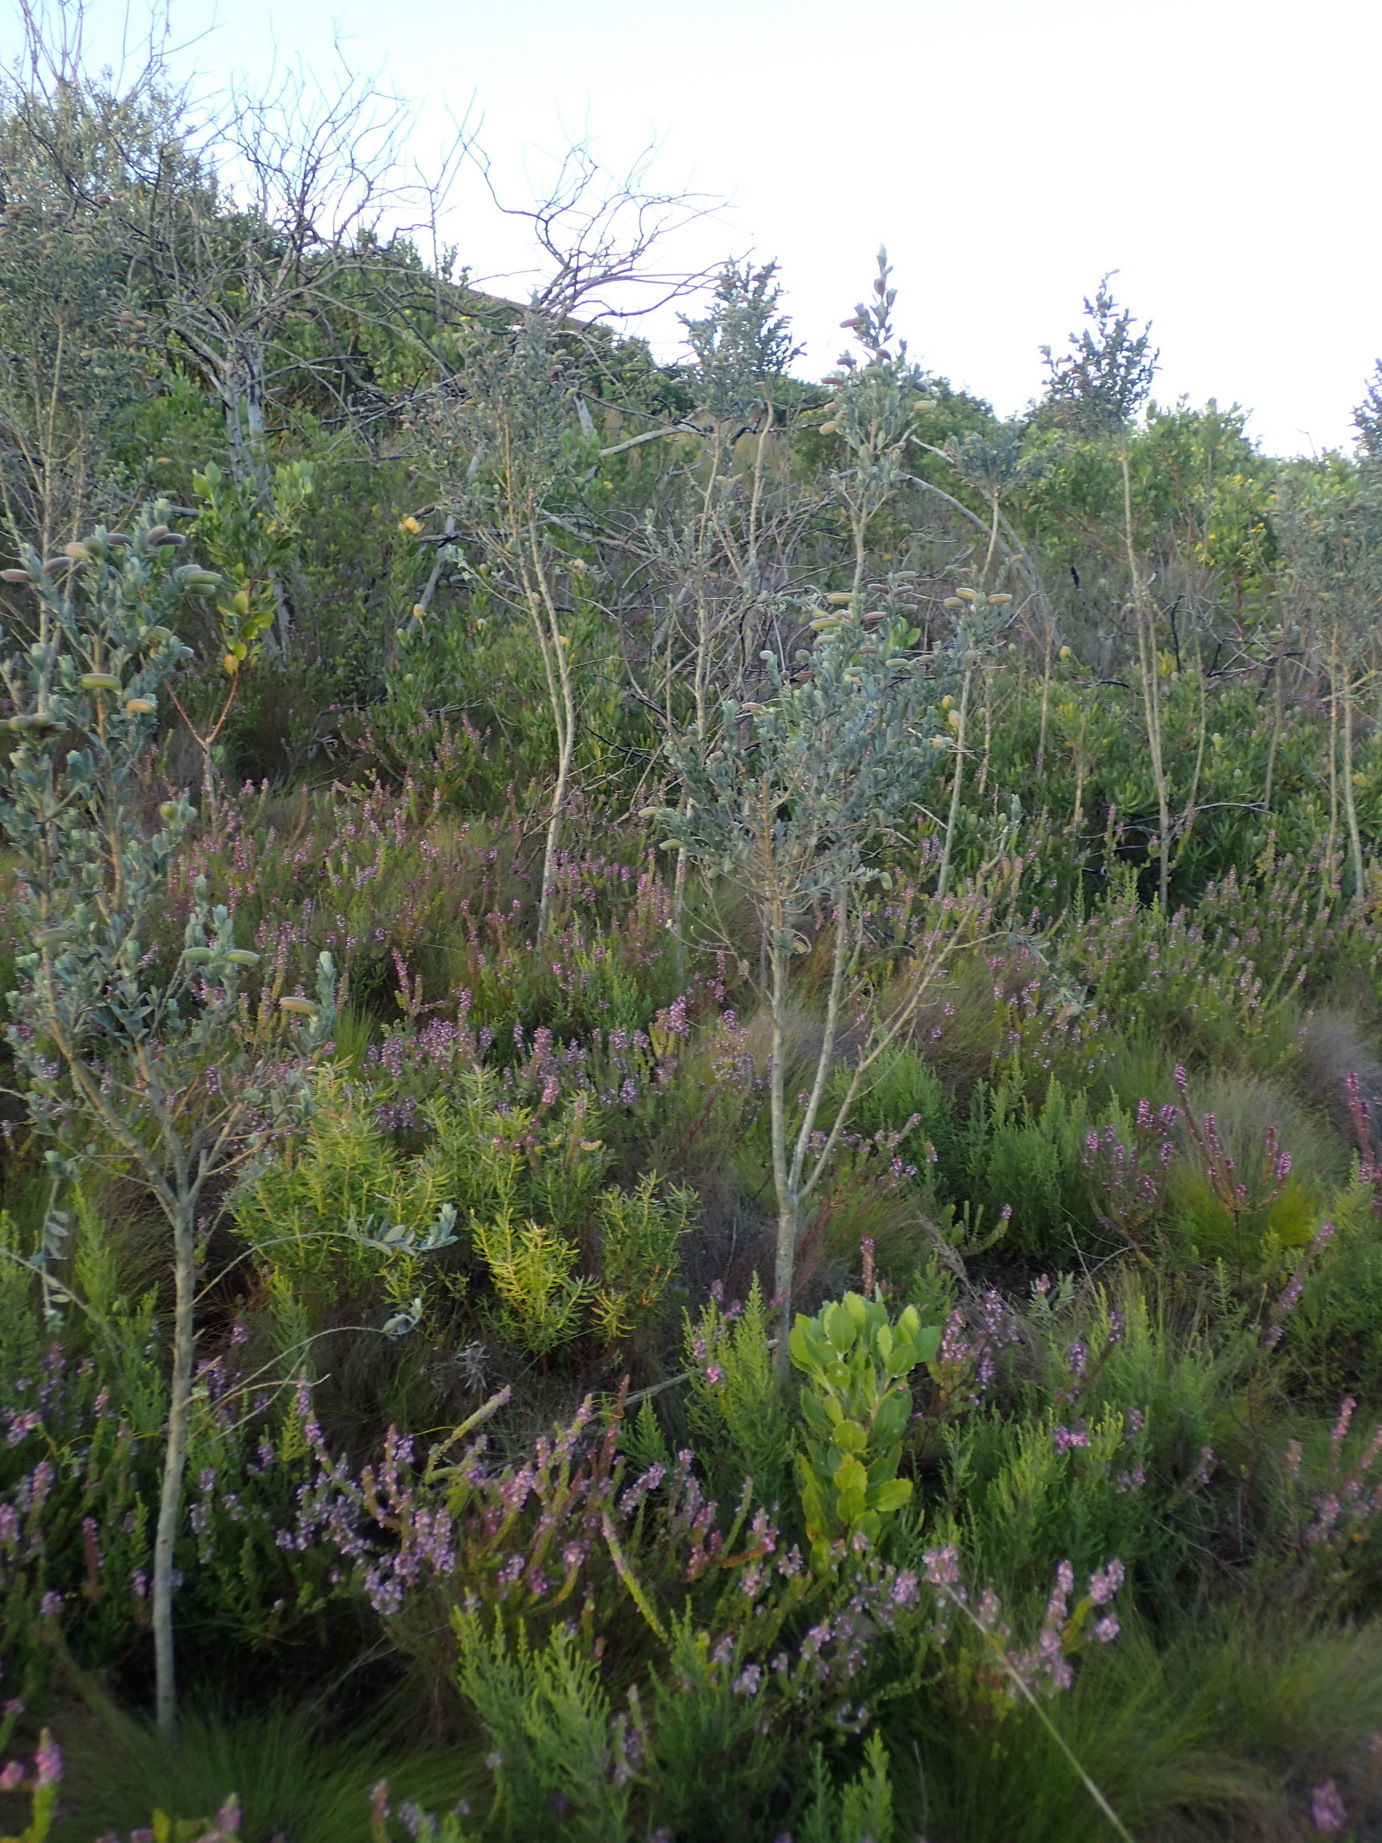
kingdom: Plantae
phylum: Tracheophyta
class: Magnoliopsida
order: Fabales
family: Fabaceae
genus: Podalyria
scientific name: Podalyria myrtillifolia
